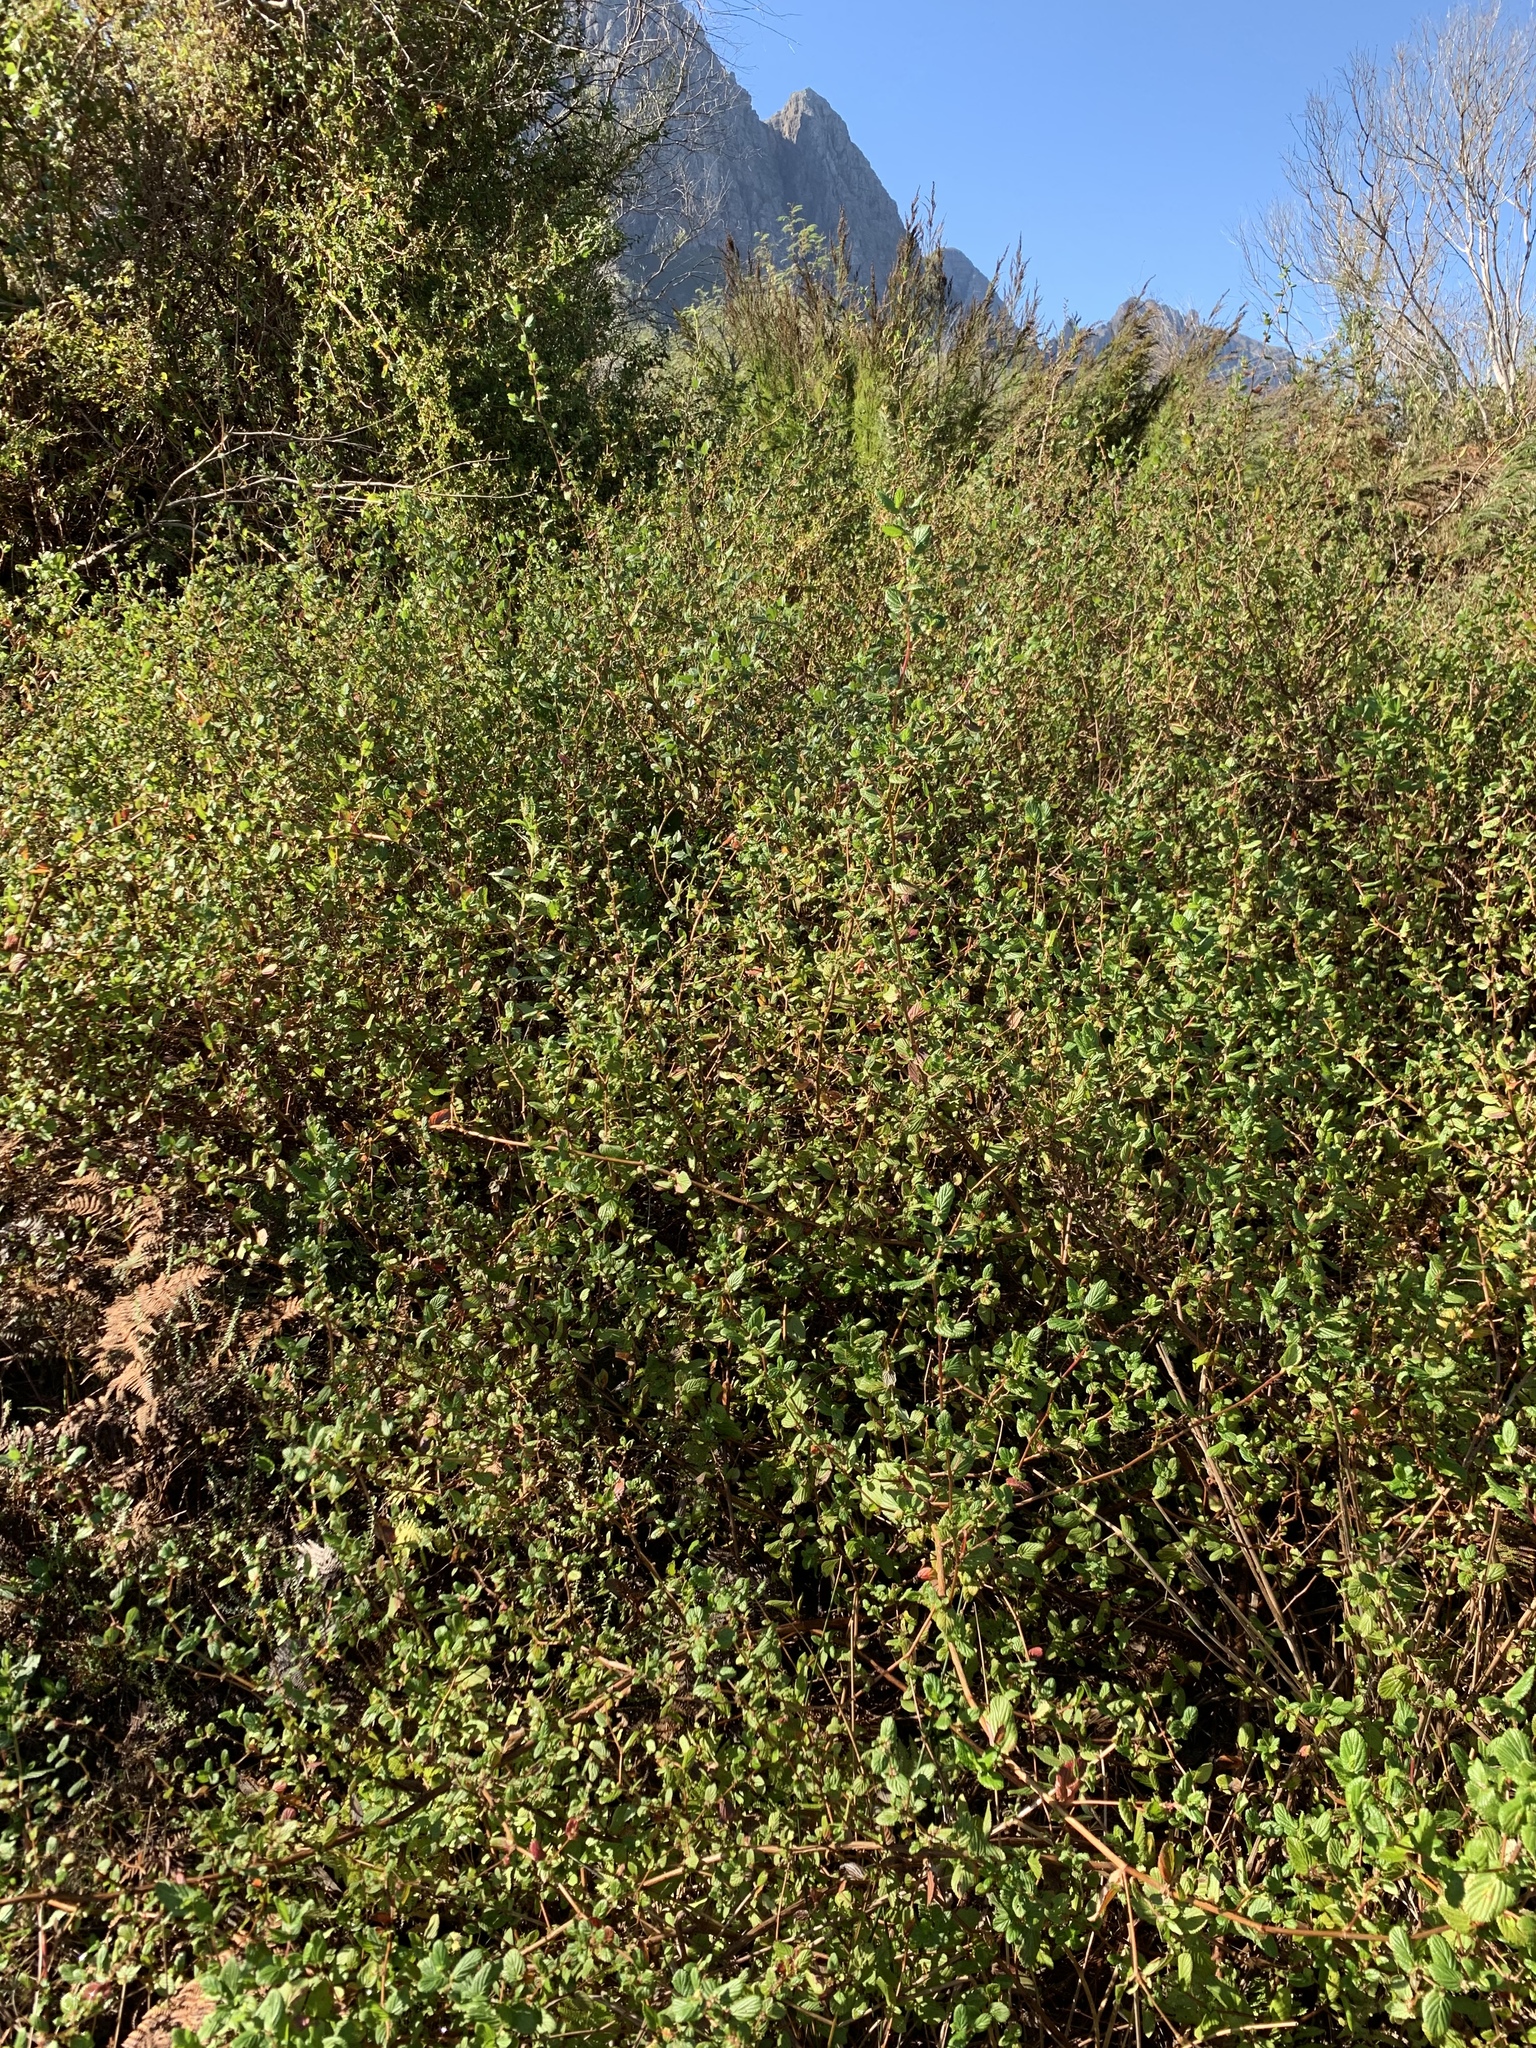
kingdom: Plantae
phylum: Tracheophyta
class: Magnoliopsida
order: Rosales
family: Rosaceae
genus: Cliffortia
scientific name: Cliffortia odorata
